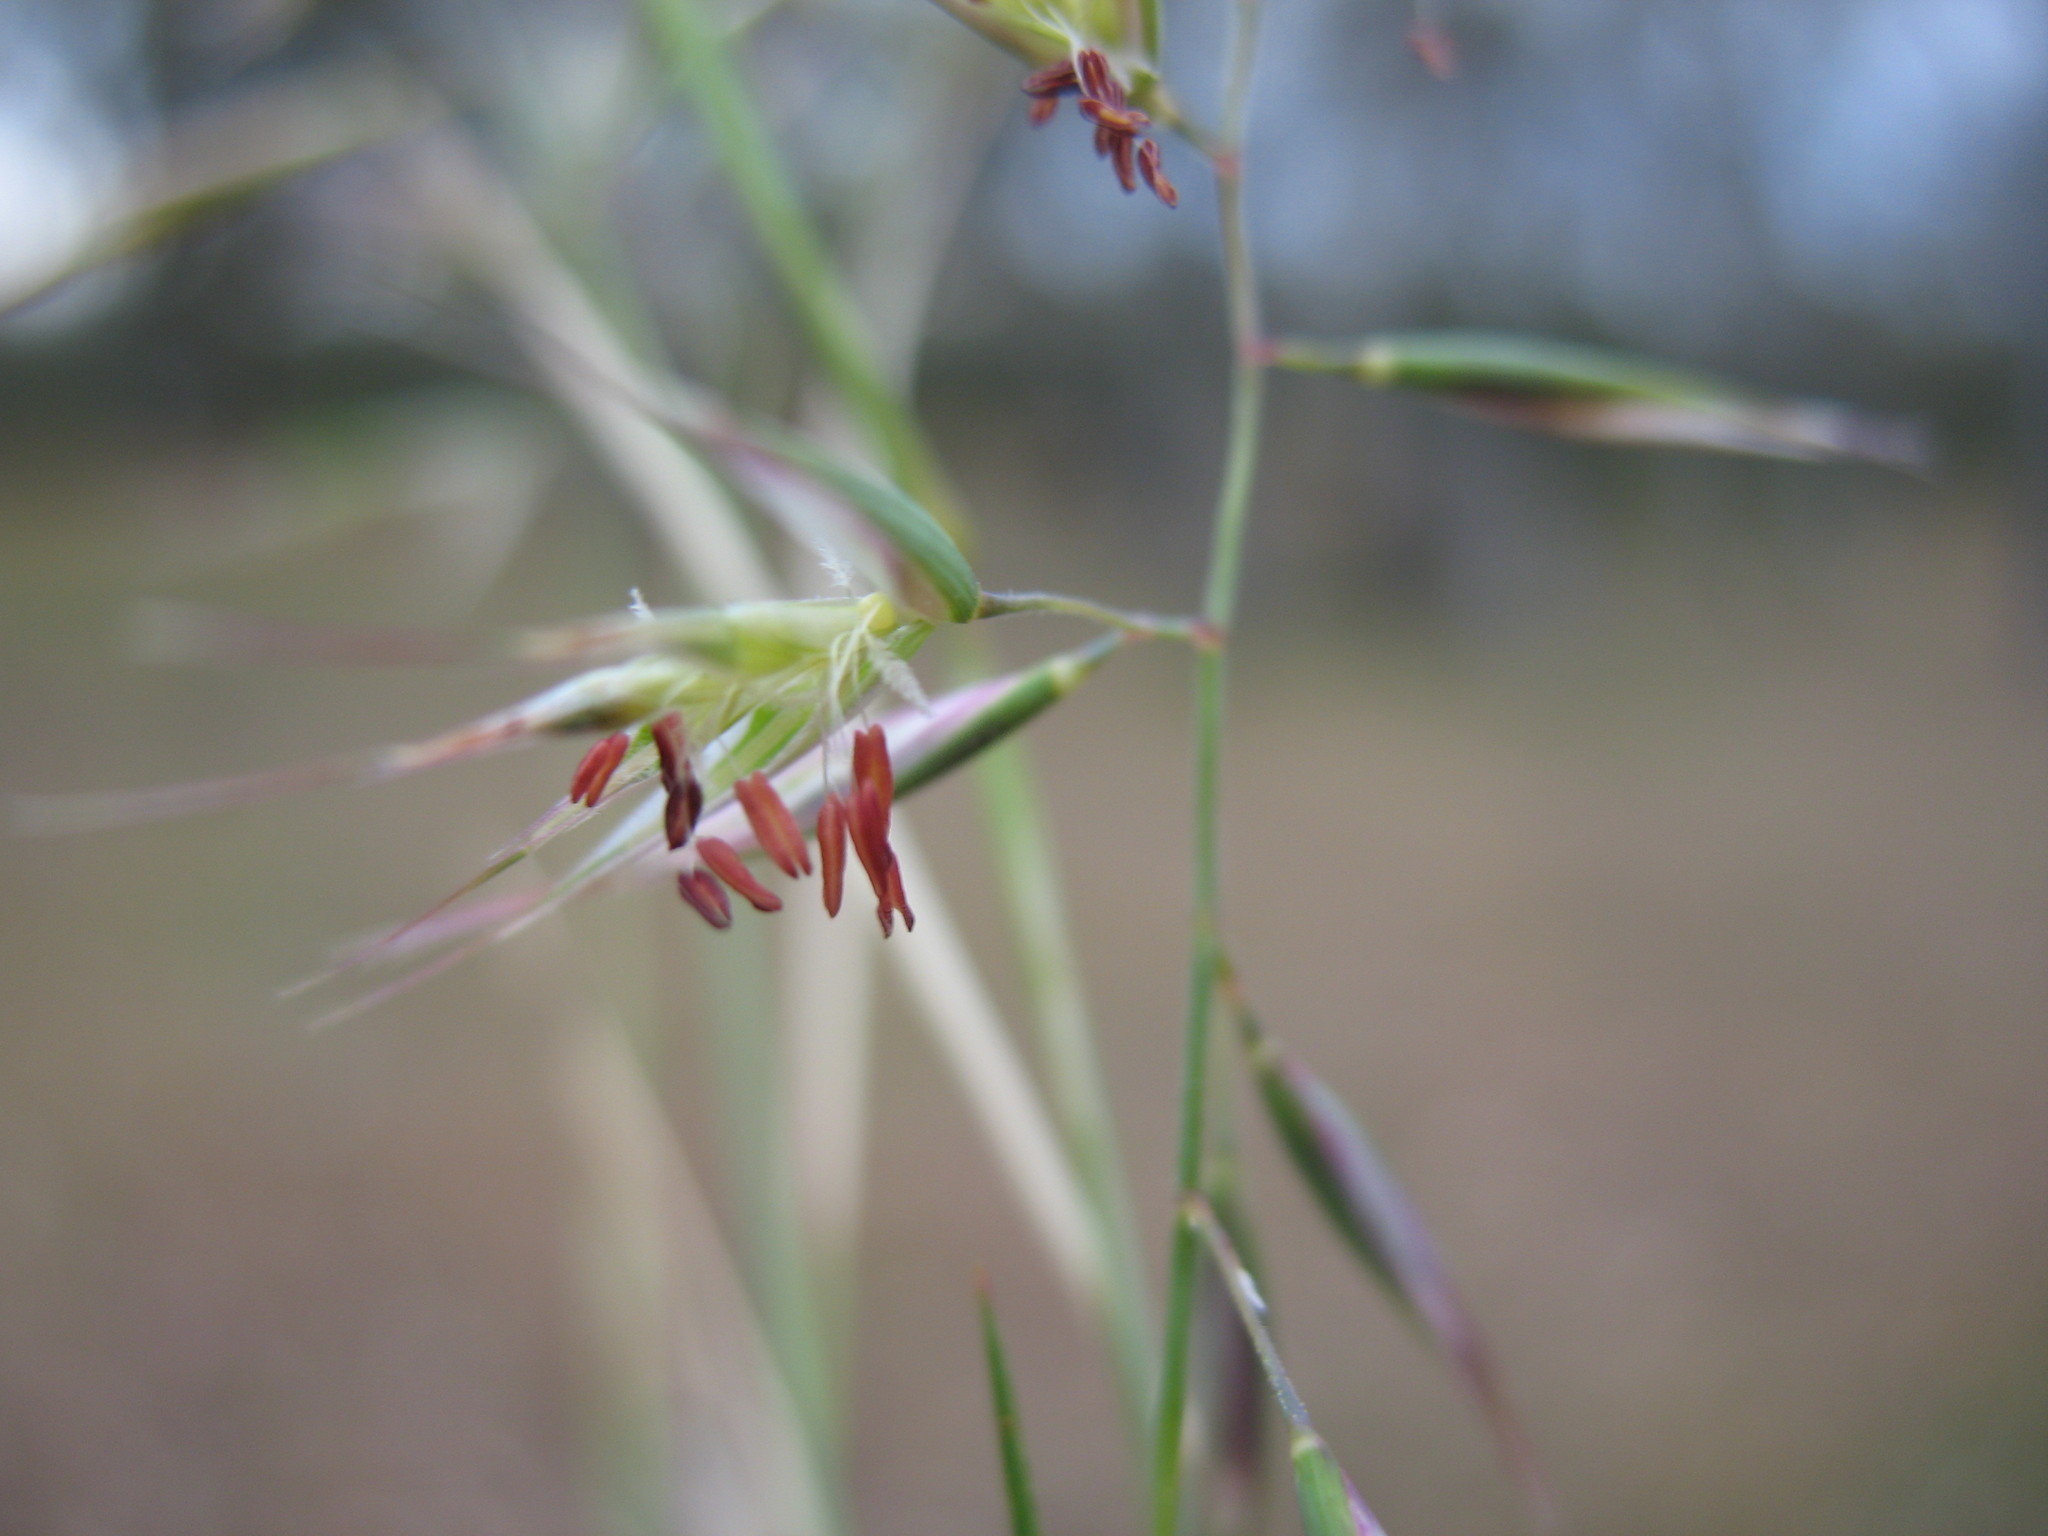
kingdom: Plantae
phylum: Tracheophyta
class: Liliopsida
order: Poales
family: Poaceae
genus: Rytidosperma
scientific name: Rytidosperma setaceum
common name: Small-flower wallaby grass
